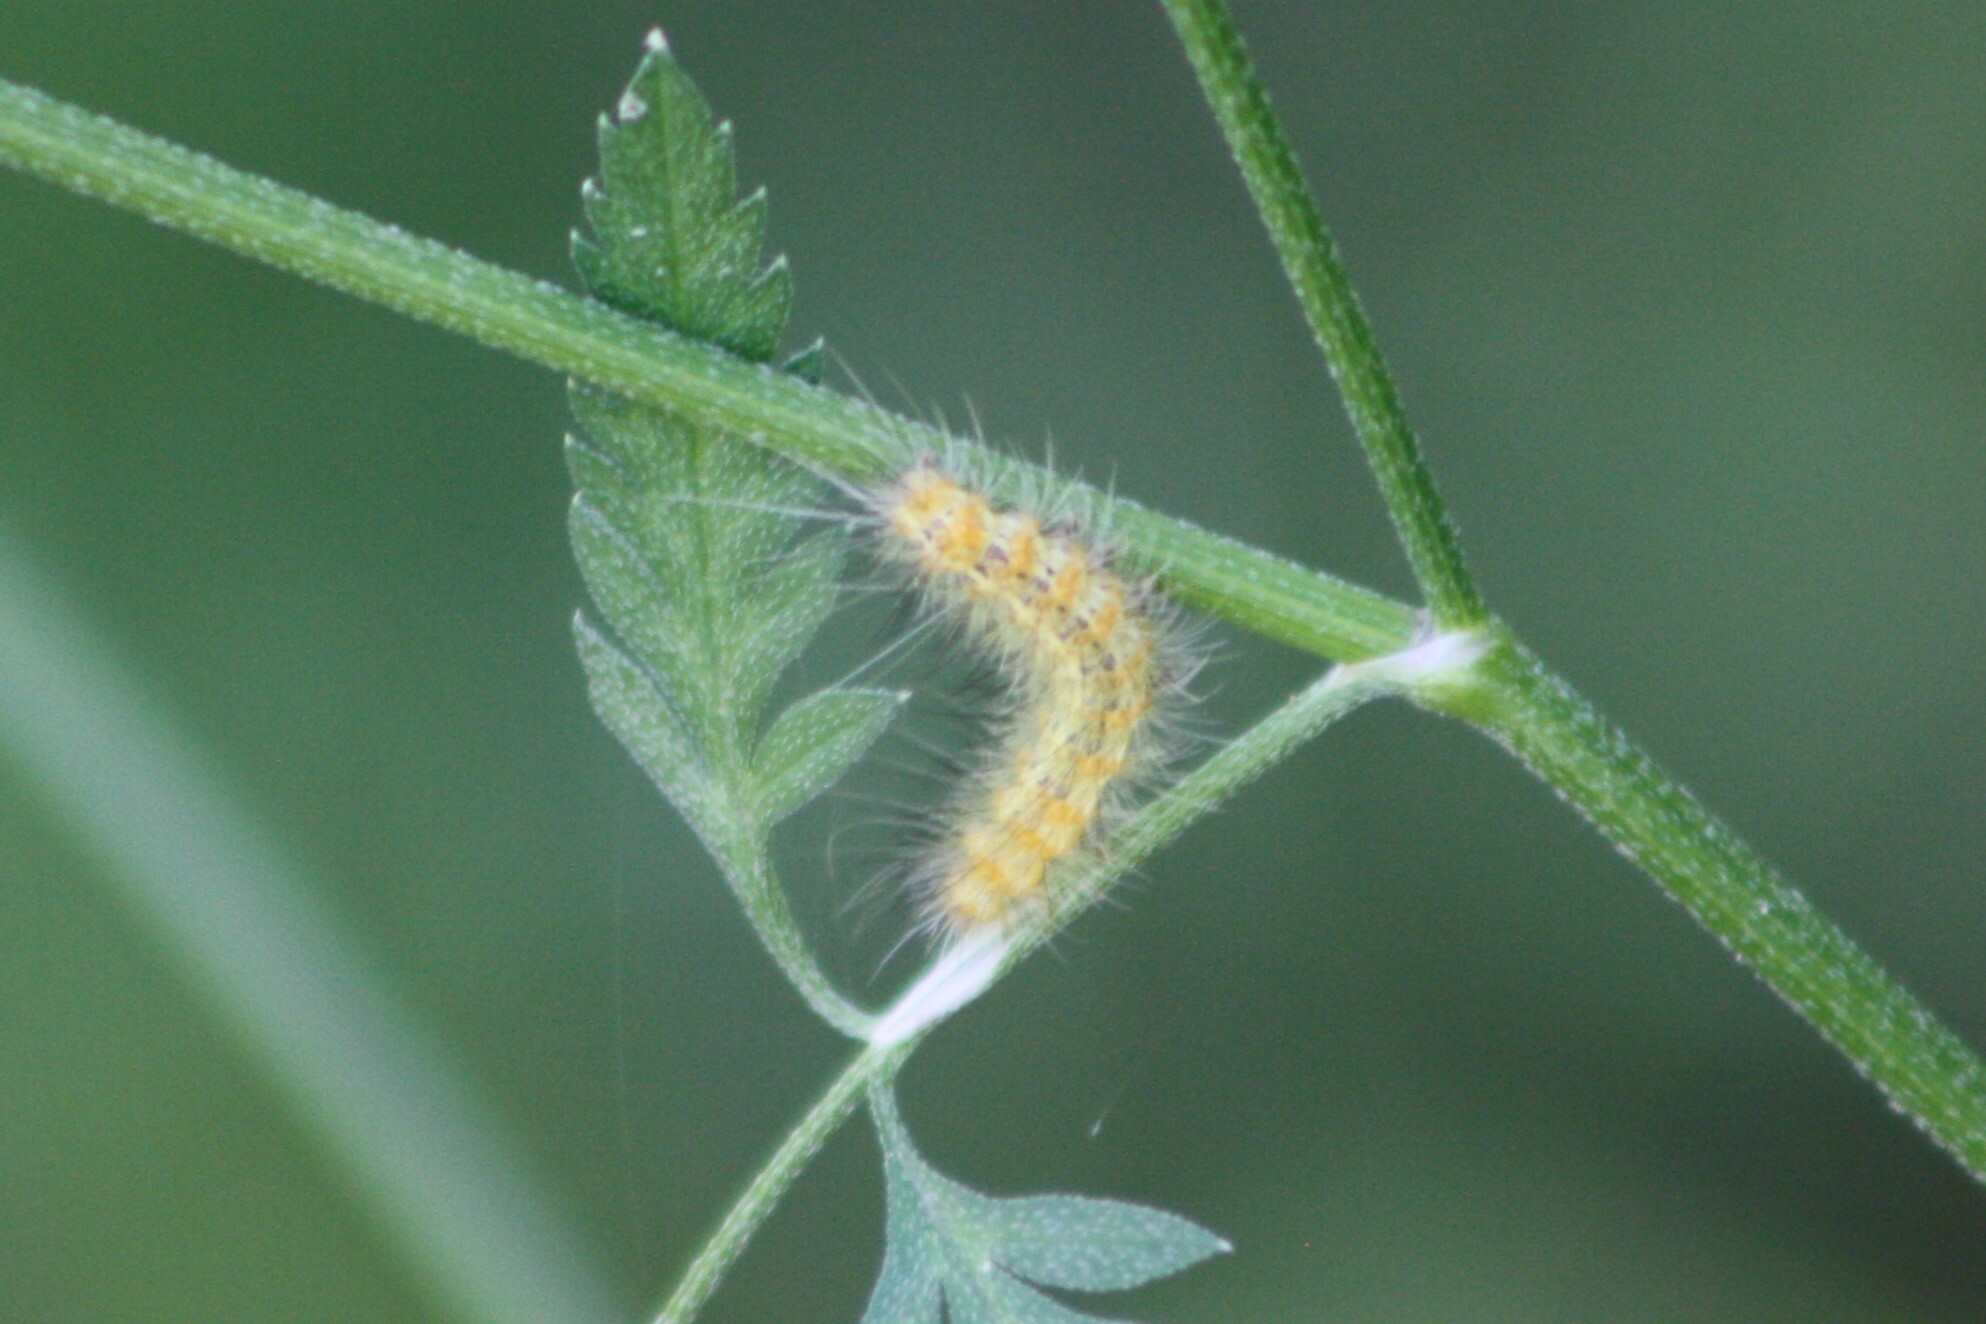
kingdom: Animalia
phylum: Arthropoda
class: Insecta
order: Lepidoptera
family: Erebidae
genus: Estigmene
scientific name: Estigmene acrea
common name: Salt marsh moth
